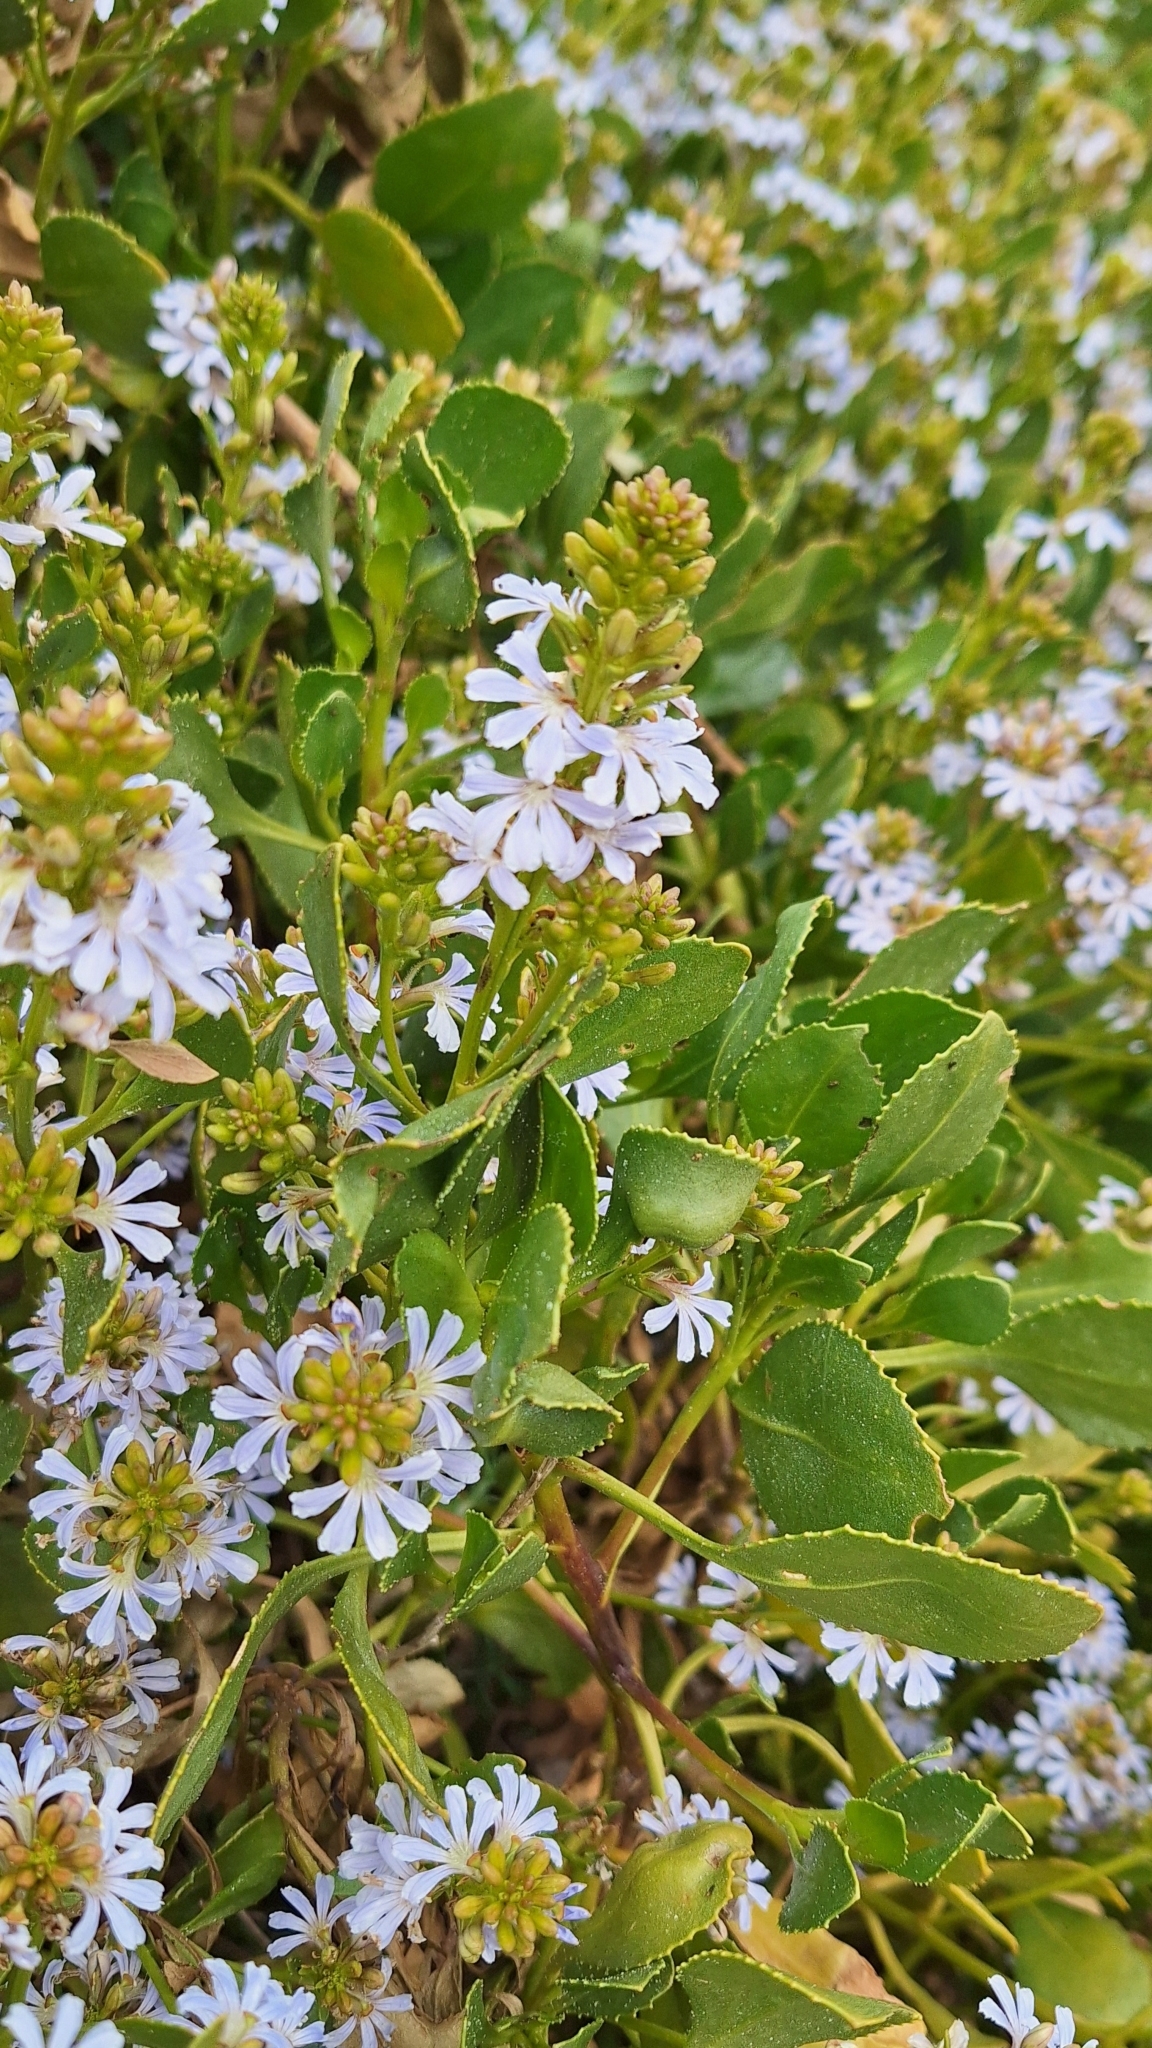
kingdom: Plantae
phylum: Tracheophyta
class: Magnoliopsida
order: Asterales
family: Goodeniaceae
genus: Scaevola
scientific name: Scaevola crassifolia
